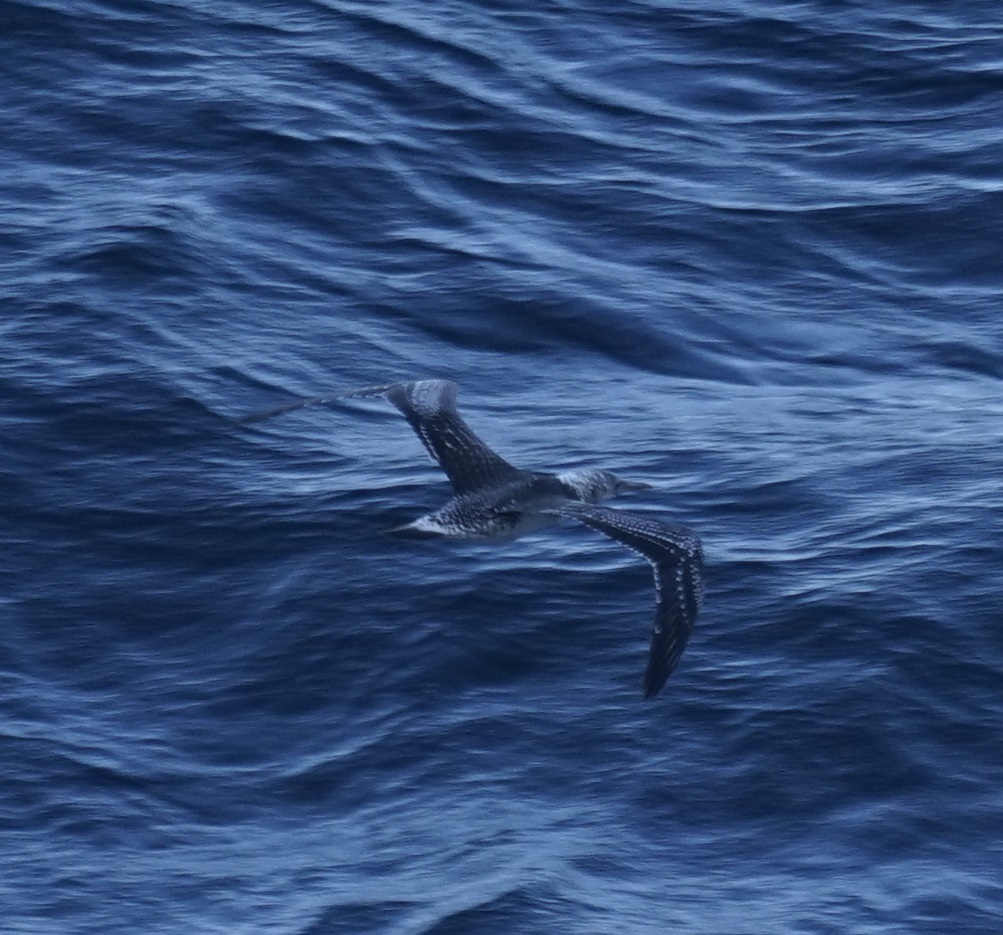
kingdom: Animalia
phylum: Chordata
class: Aves
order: Suliformes
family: Sulidae
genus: Morus
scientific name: Morus serrator
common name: Australasian gannet
